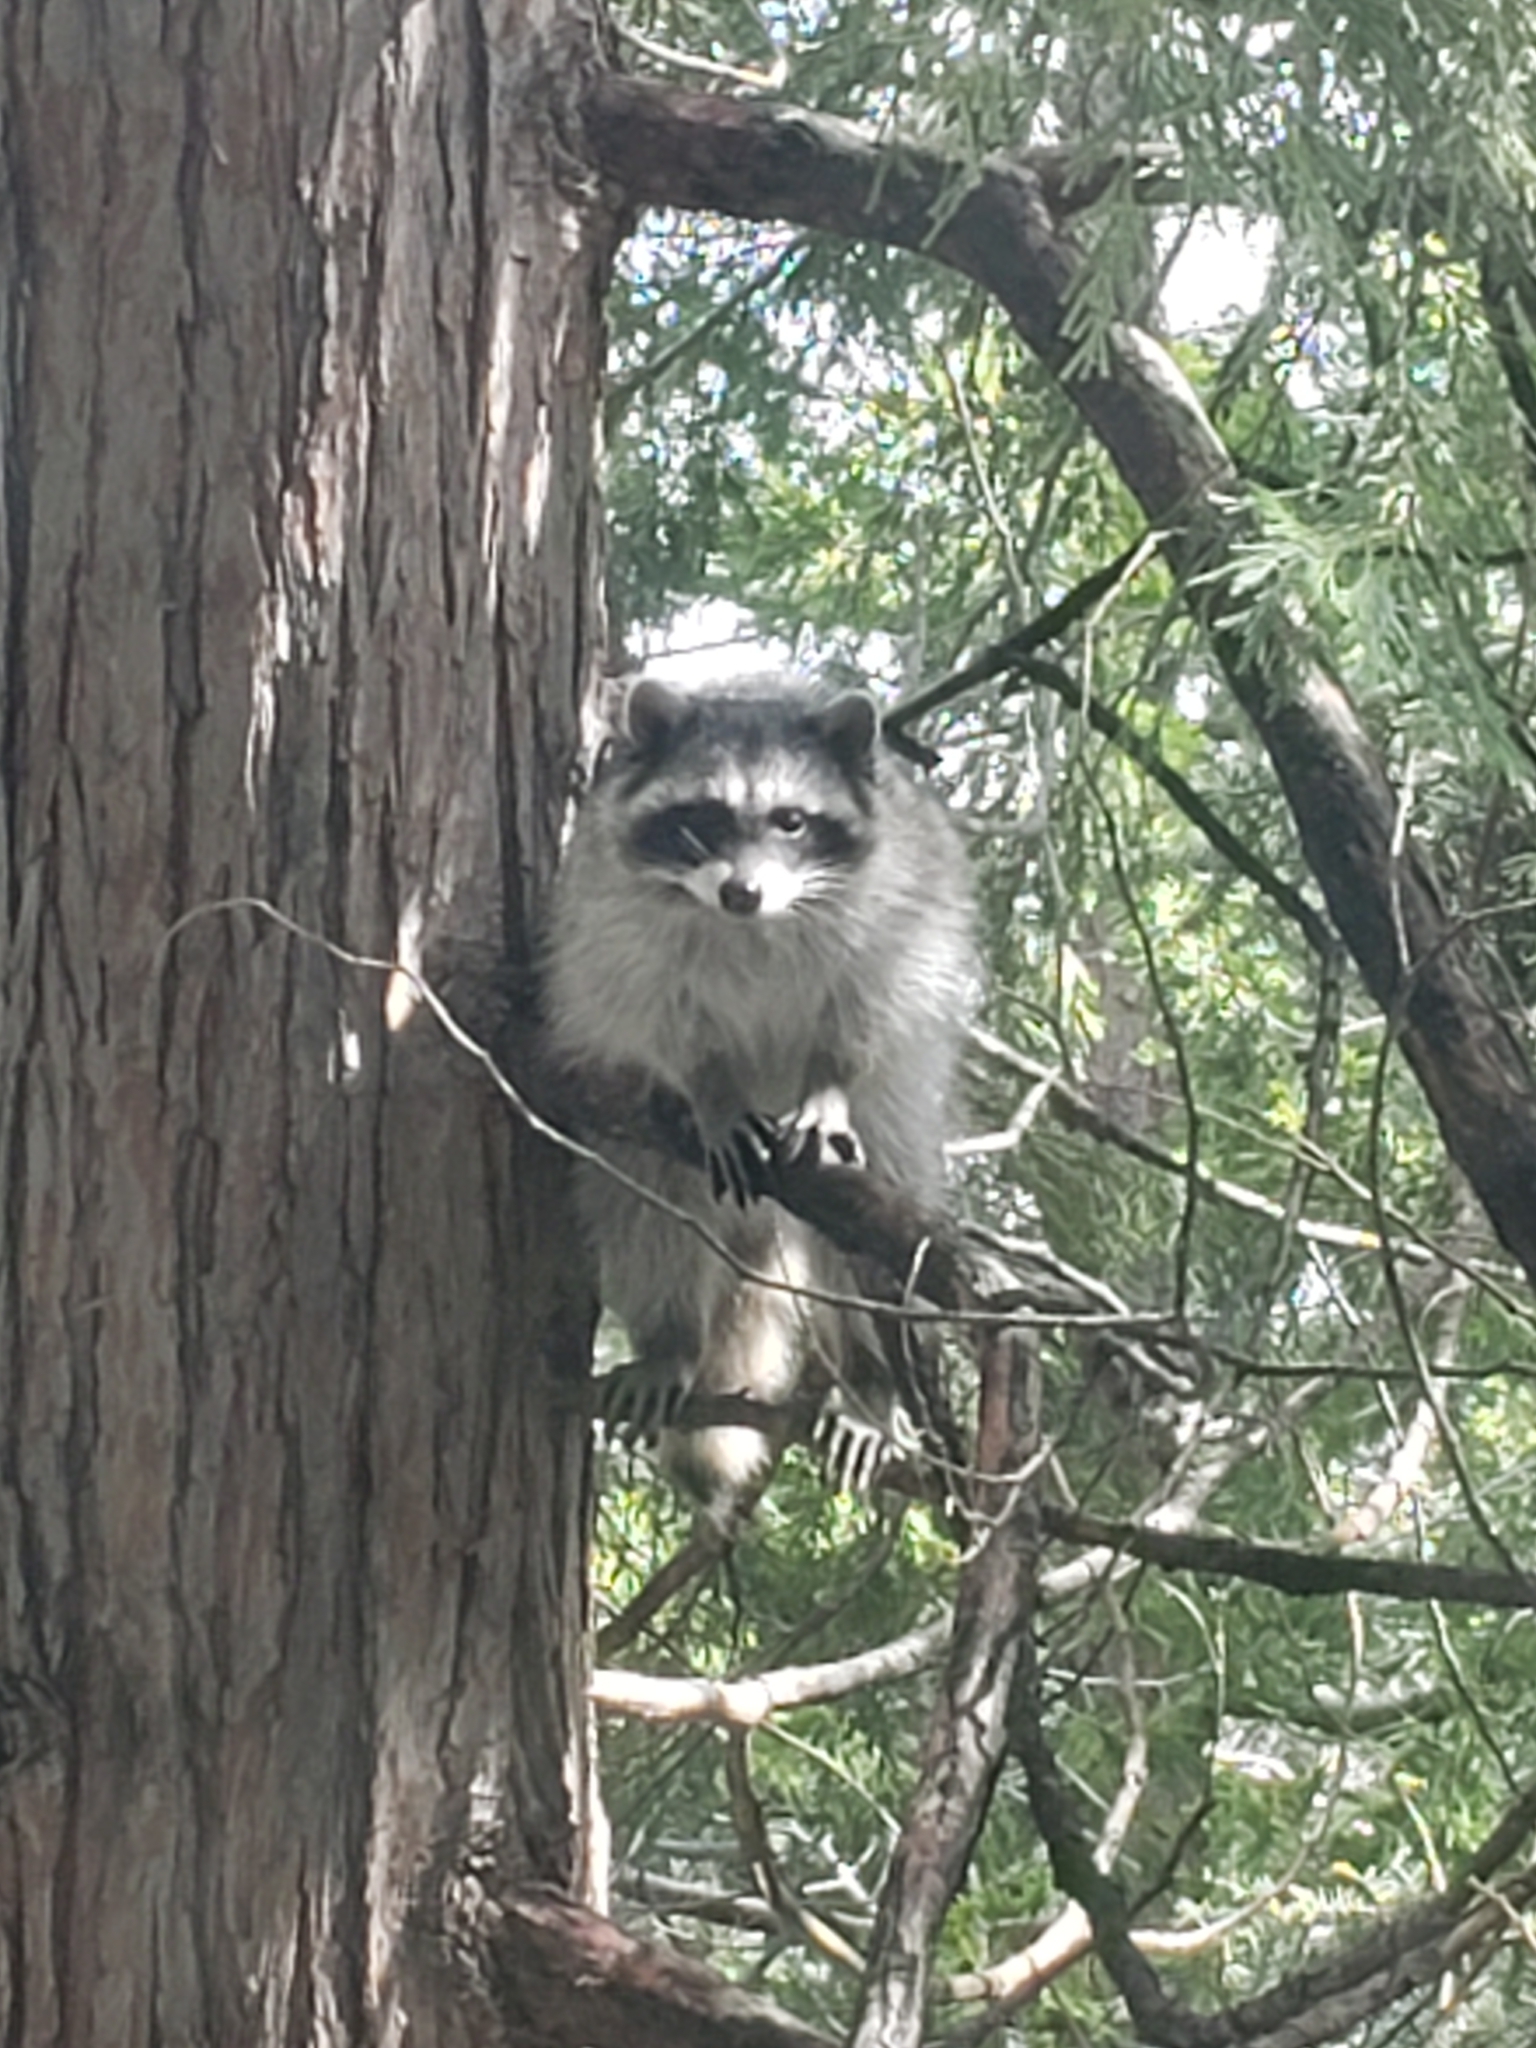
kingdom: Animalia
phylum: Chordata
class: Mammalia
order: Carnivora
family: Procyonidae
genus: Procyon
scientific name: Procyon lotor
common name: Raccoon
